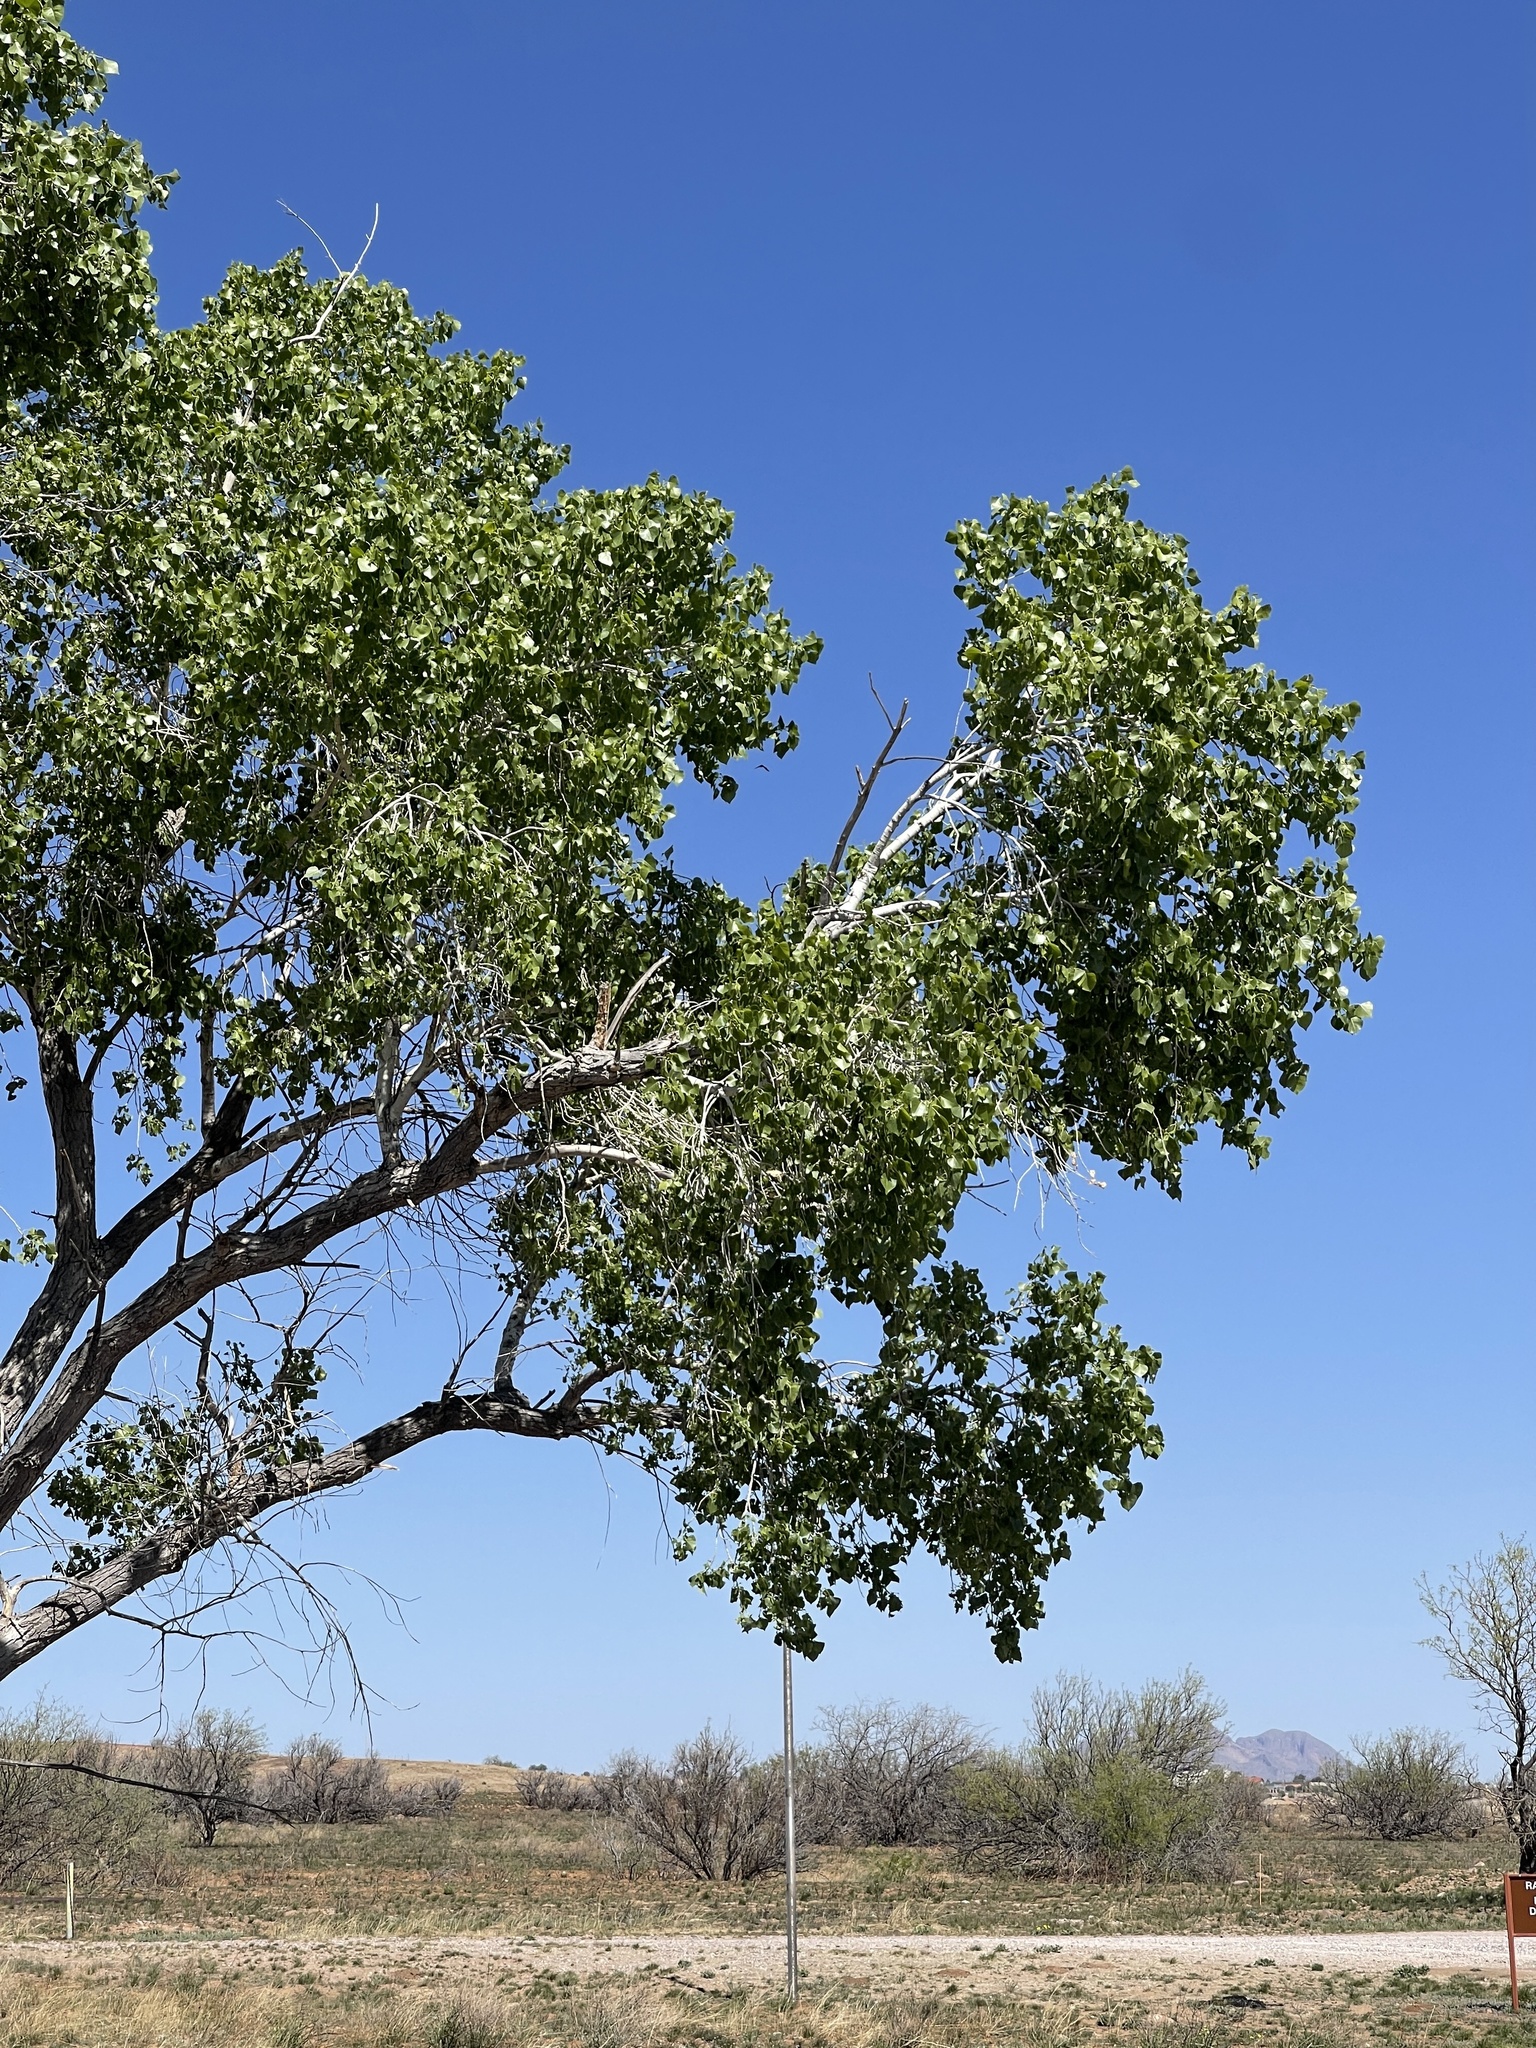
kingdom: Plantae
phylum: Tracheophyta
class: Magnoliopsida
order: Malpighiales
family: Salicaceae
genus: Populus
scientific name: Populus fremontii
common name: Fremont's cottonwood
